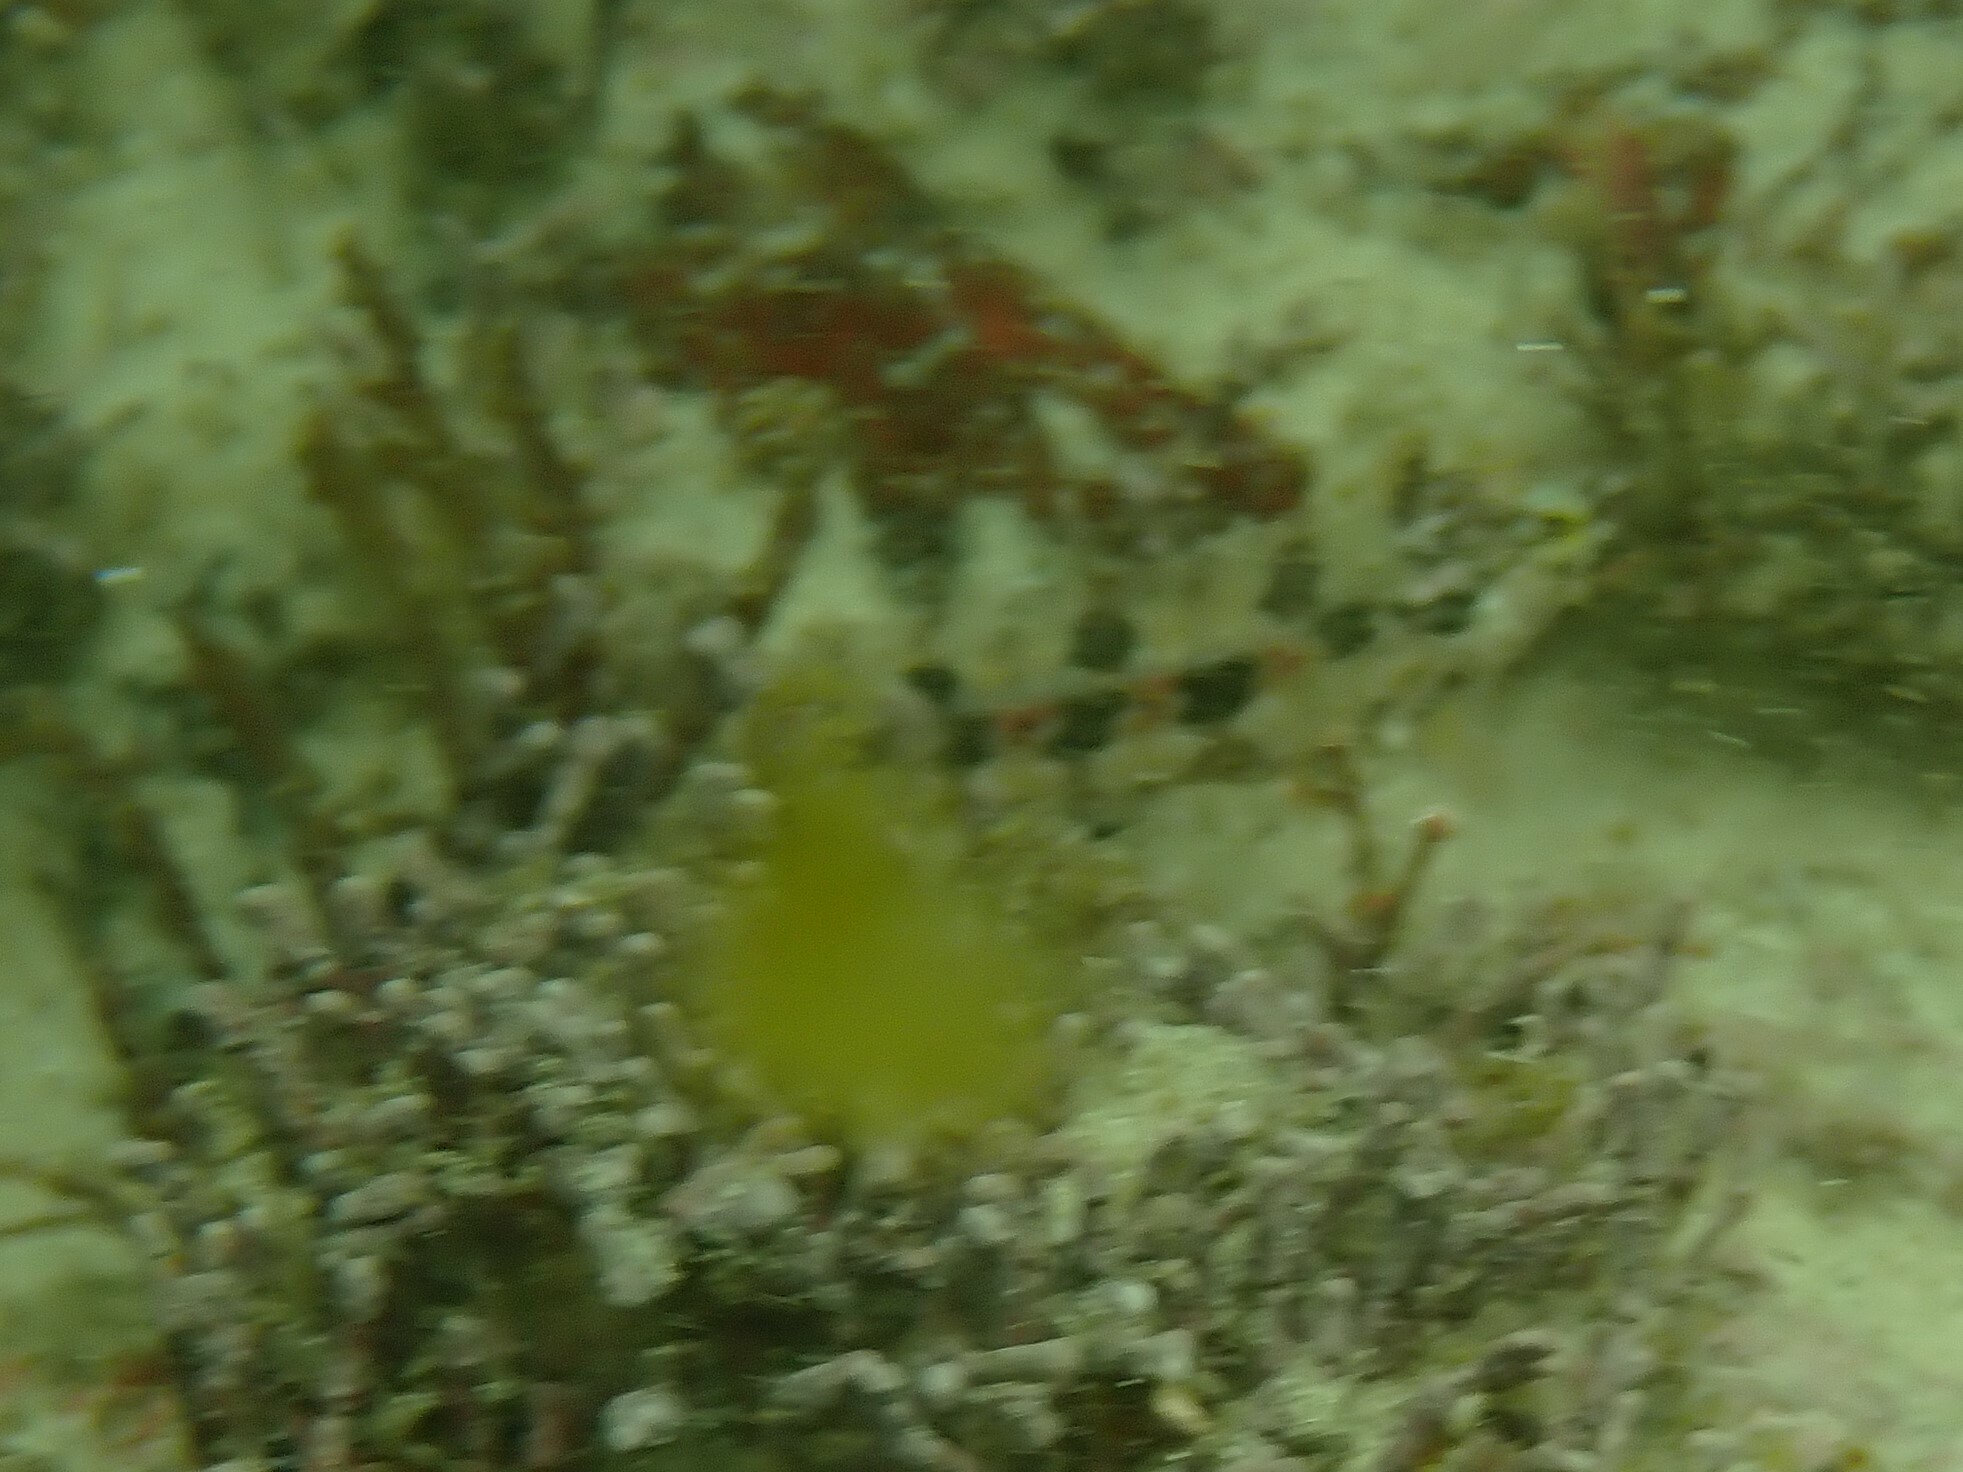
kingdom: Animalia
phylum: Chordata
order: Perciformes
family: Clinidae
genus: Clinus
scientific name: Clinus arborescens
